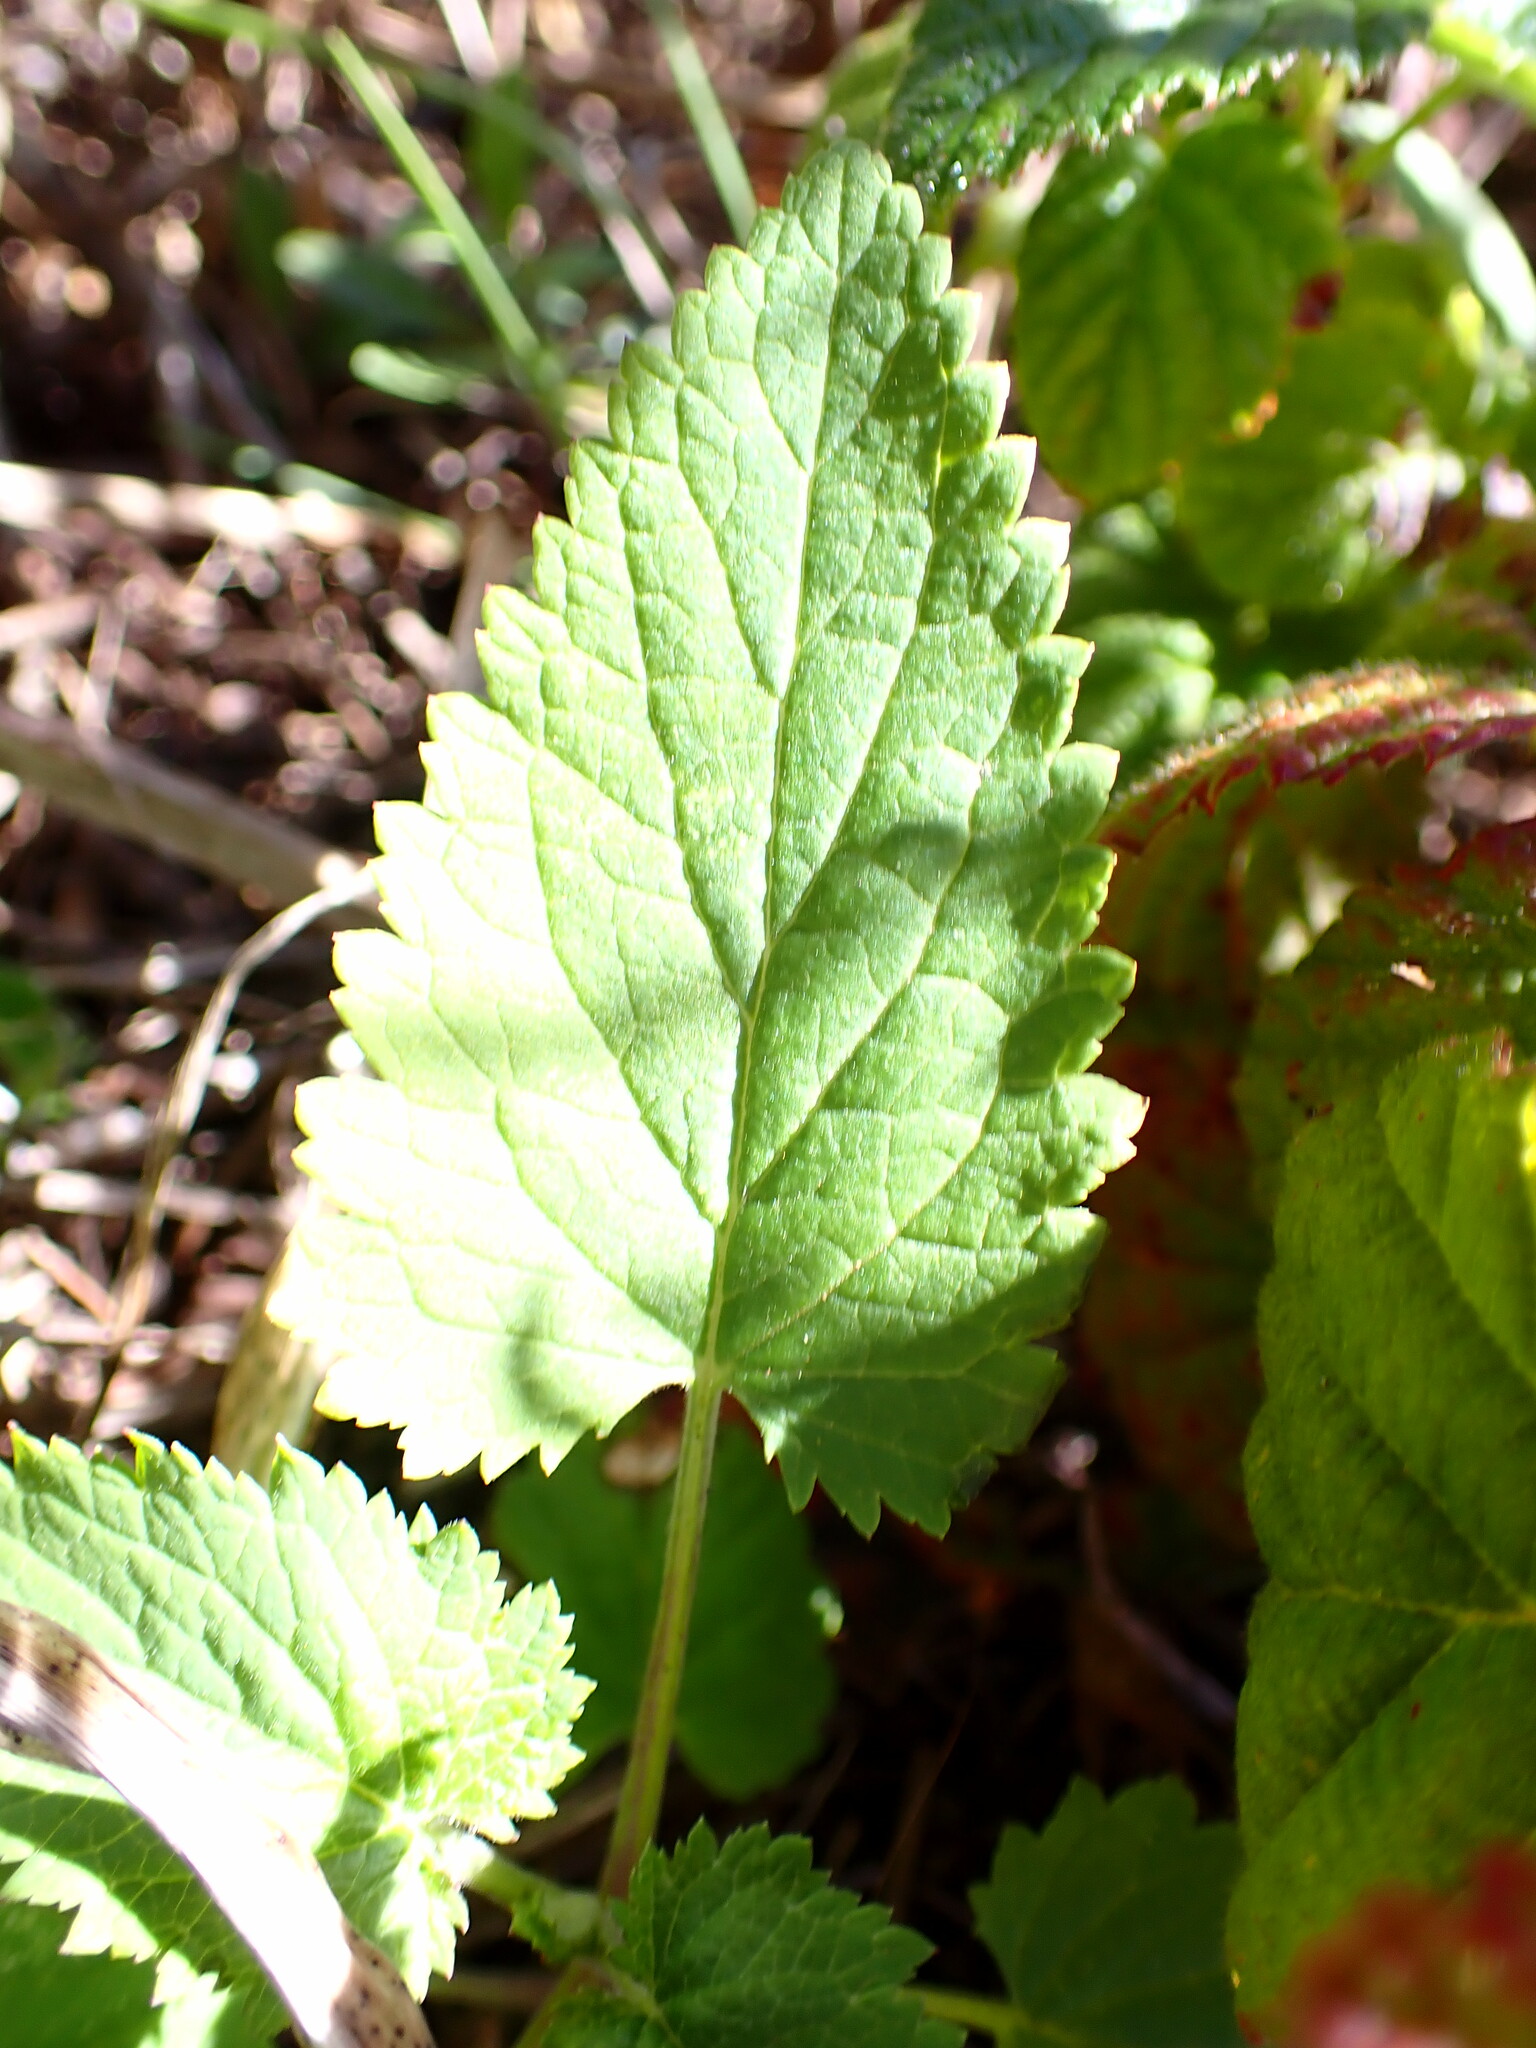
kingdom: Plantae
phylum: Tracheophyta
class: Magnoliopsida
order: Lamiales
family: Scrophulariaceae
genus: Scrophularia
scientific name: Scrophularia californica
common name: California figwort
